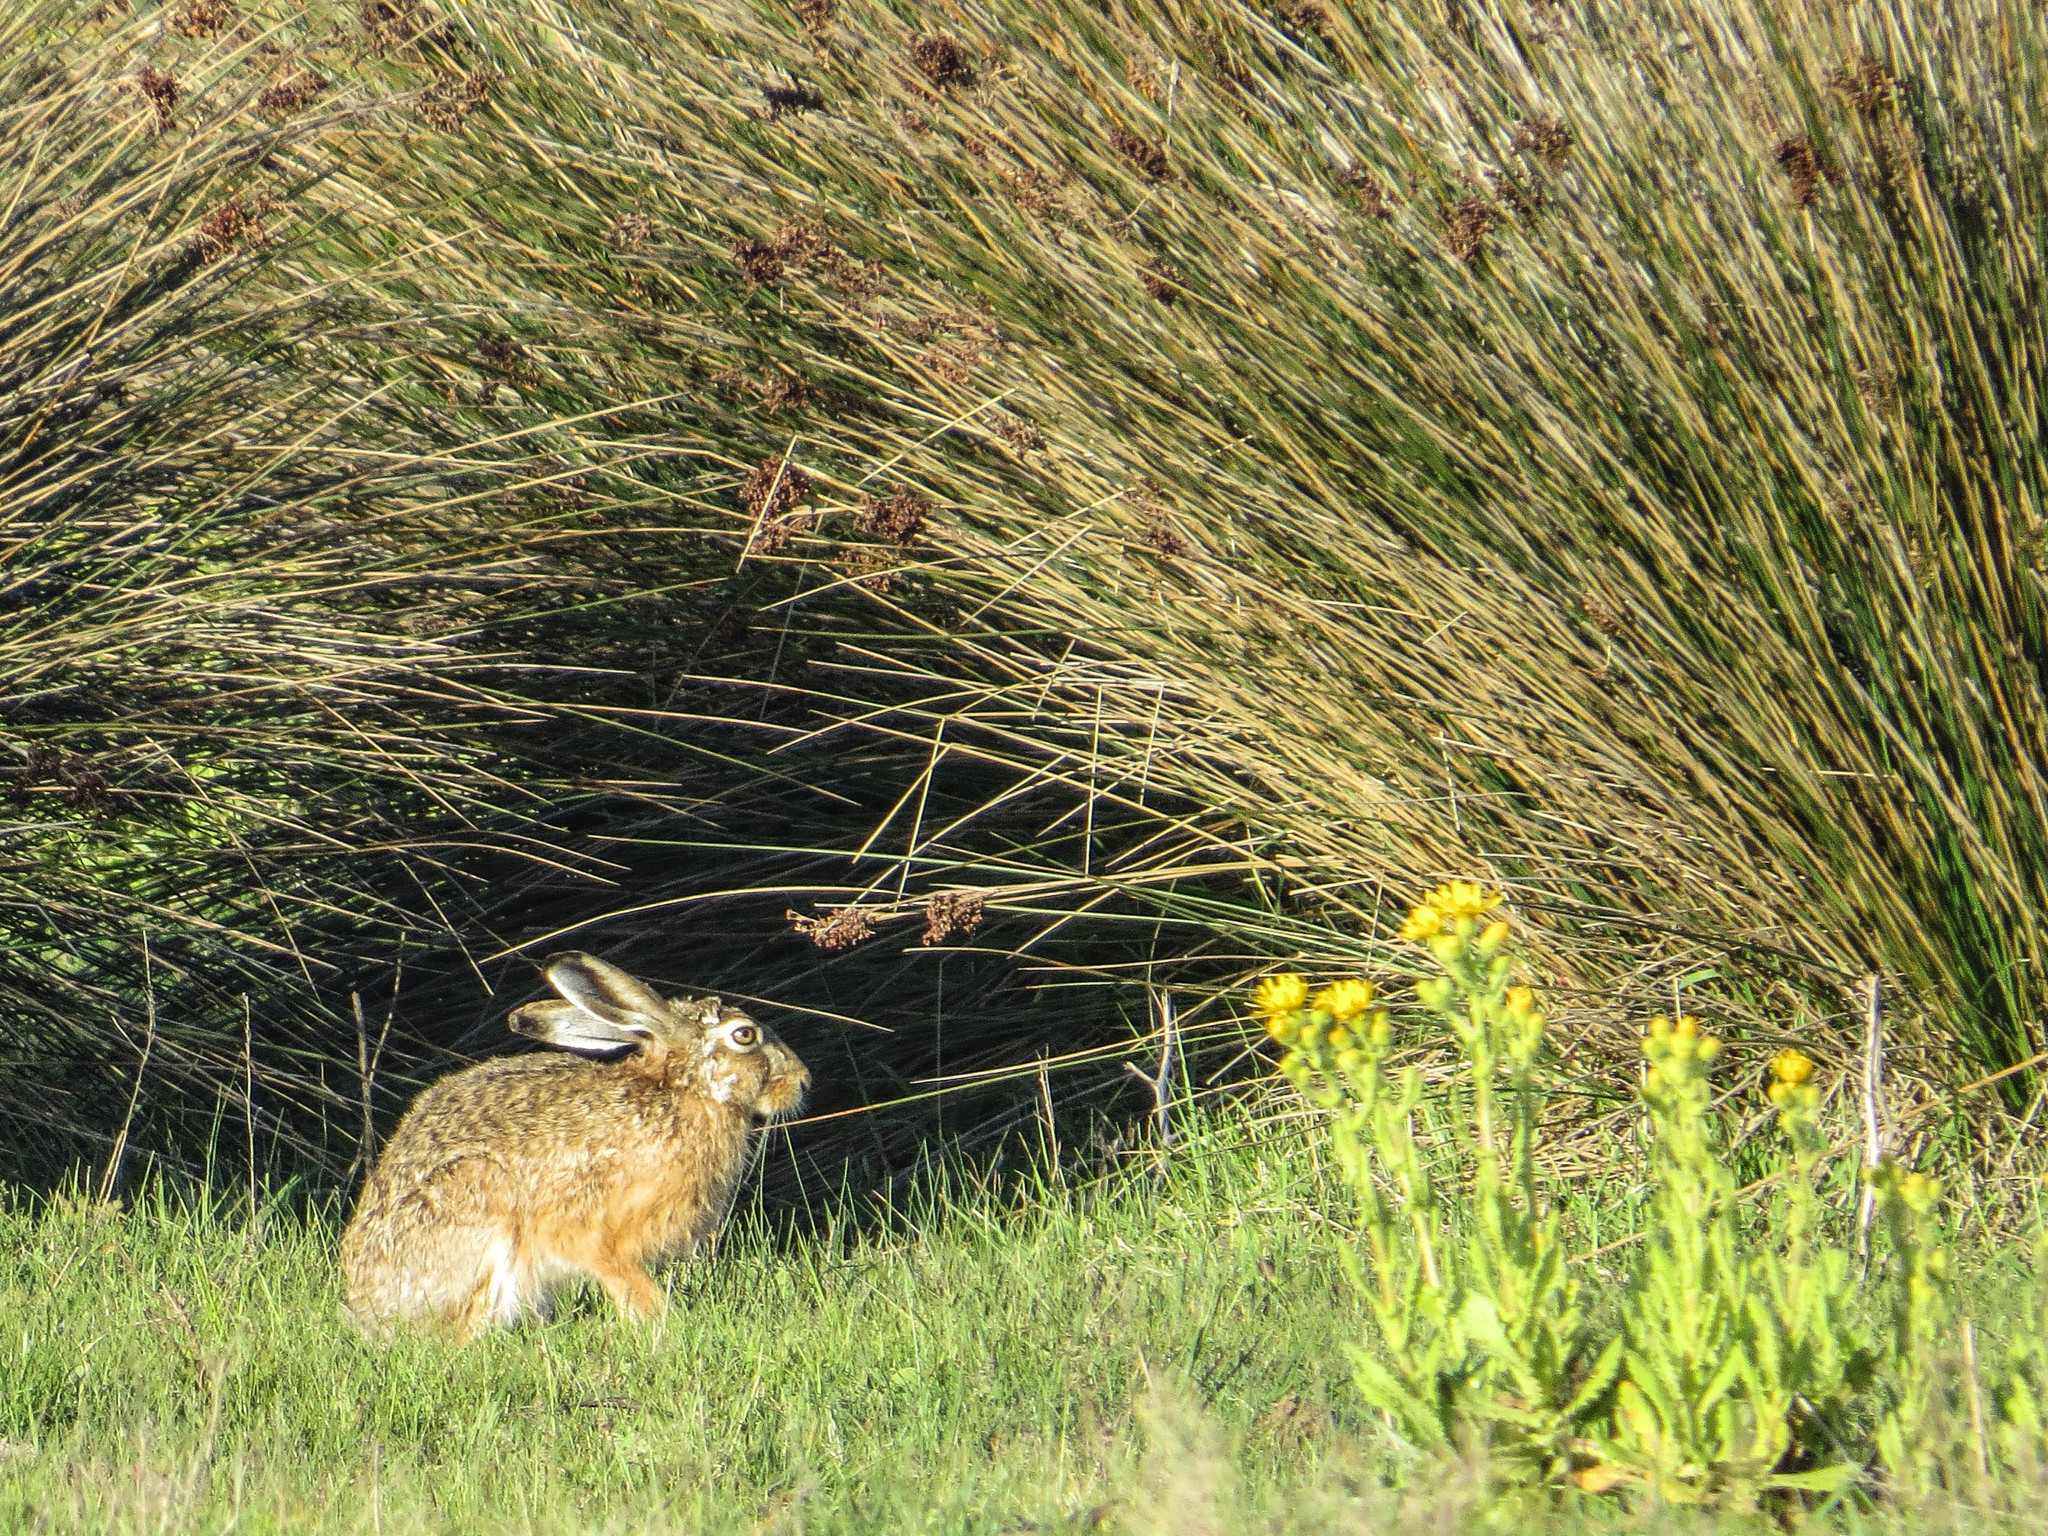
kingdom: Animalia
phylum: Chordata
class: Mammalia
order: Lagomorpha
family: Leporidae
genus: Lepus
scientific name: Lepus europaeus
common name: European hare
